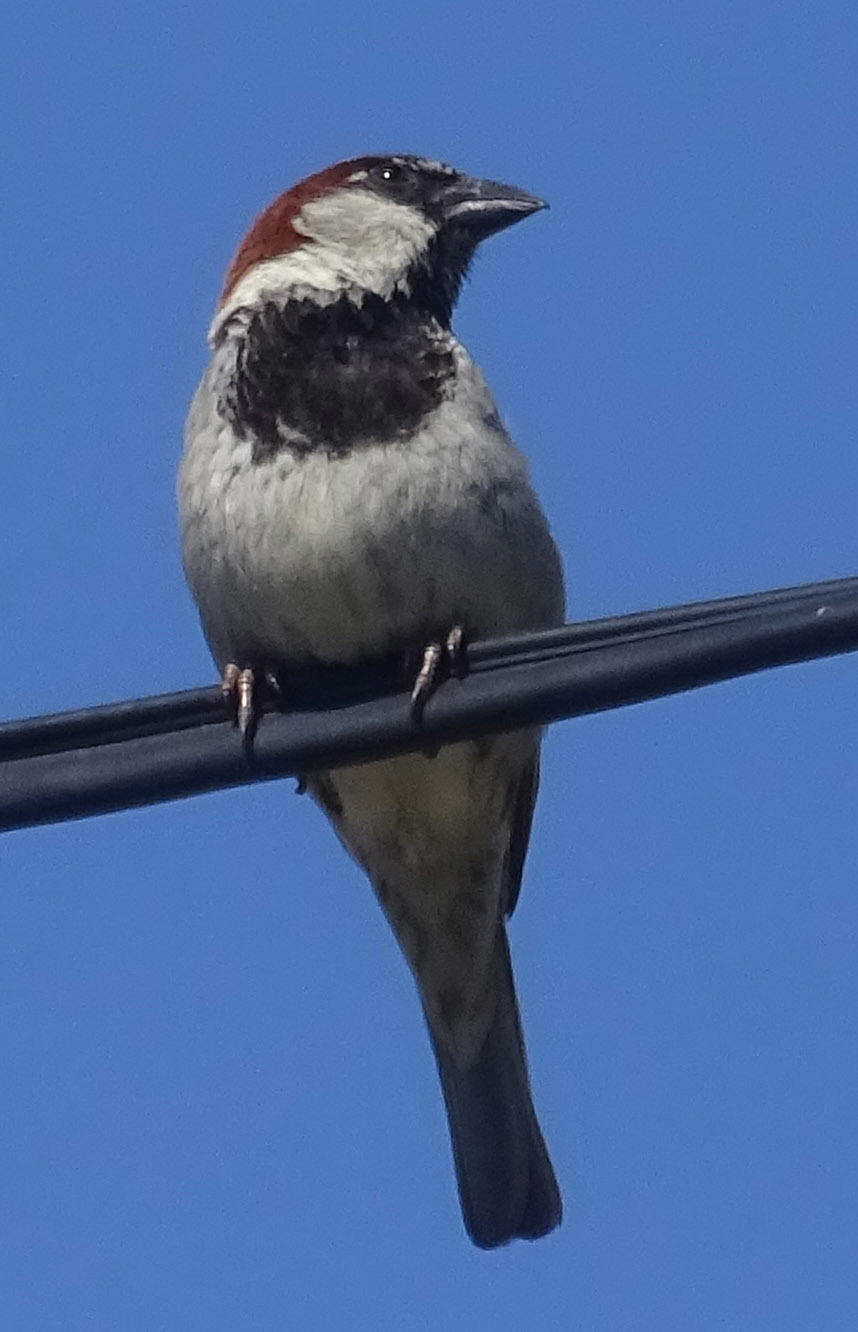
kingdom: Animalia
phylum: Chordata
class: Aves
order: Passeriformes
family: Passeridae
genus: Passer
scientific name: Passer domesticus
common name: House sparrow
